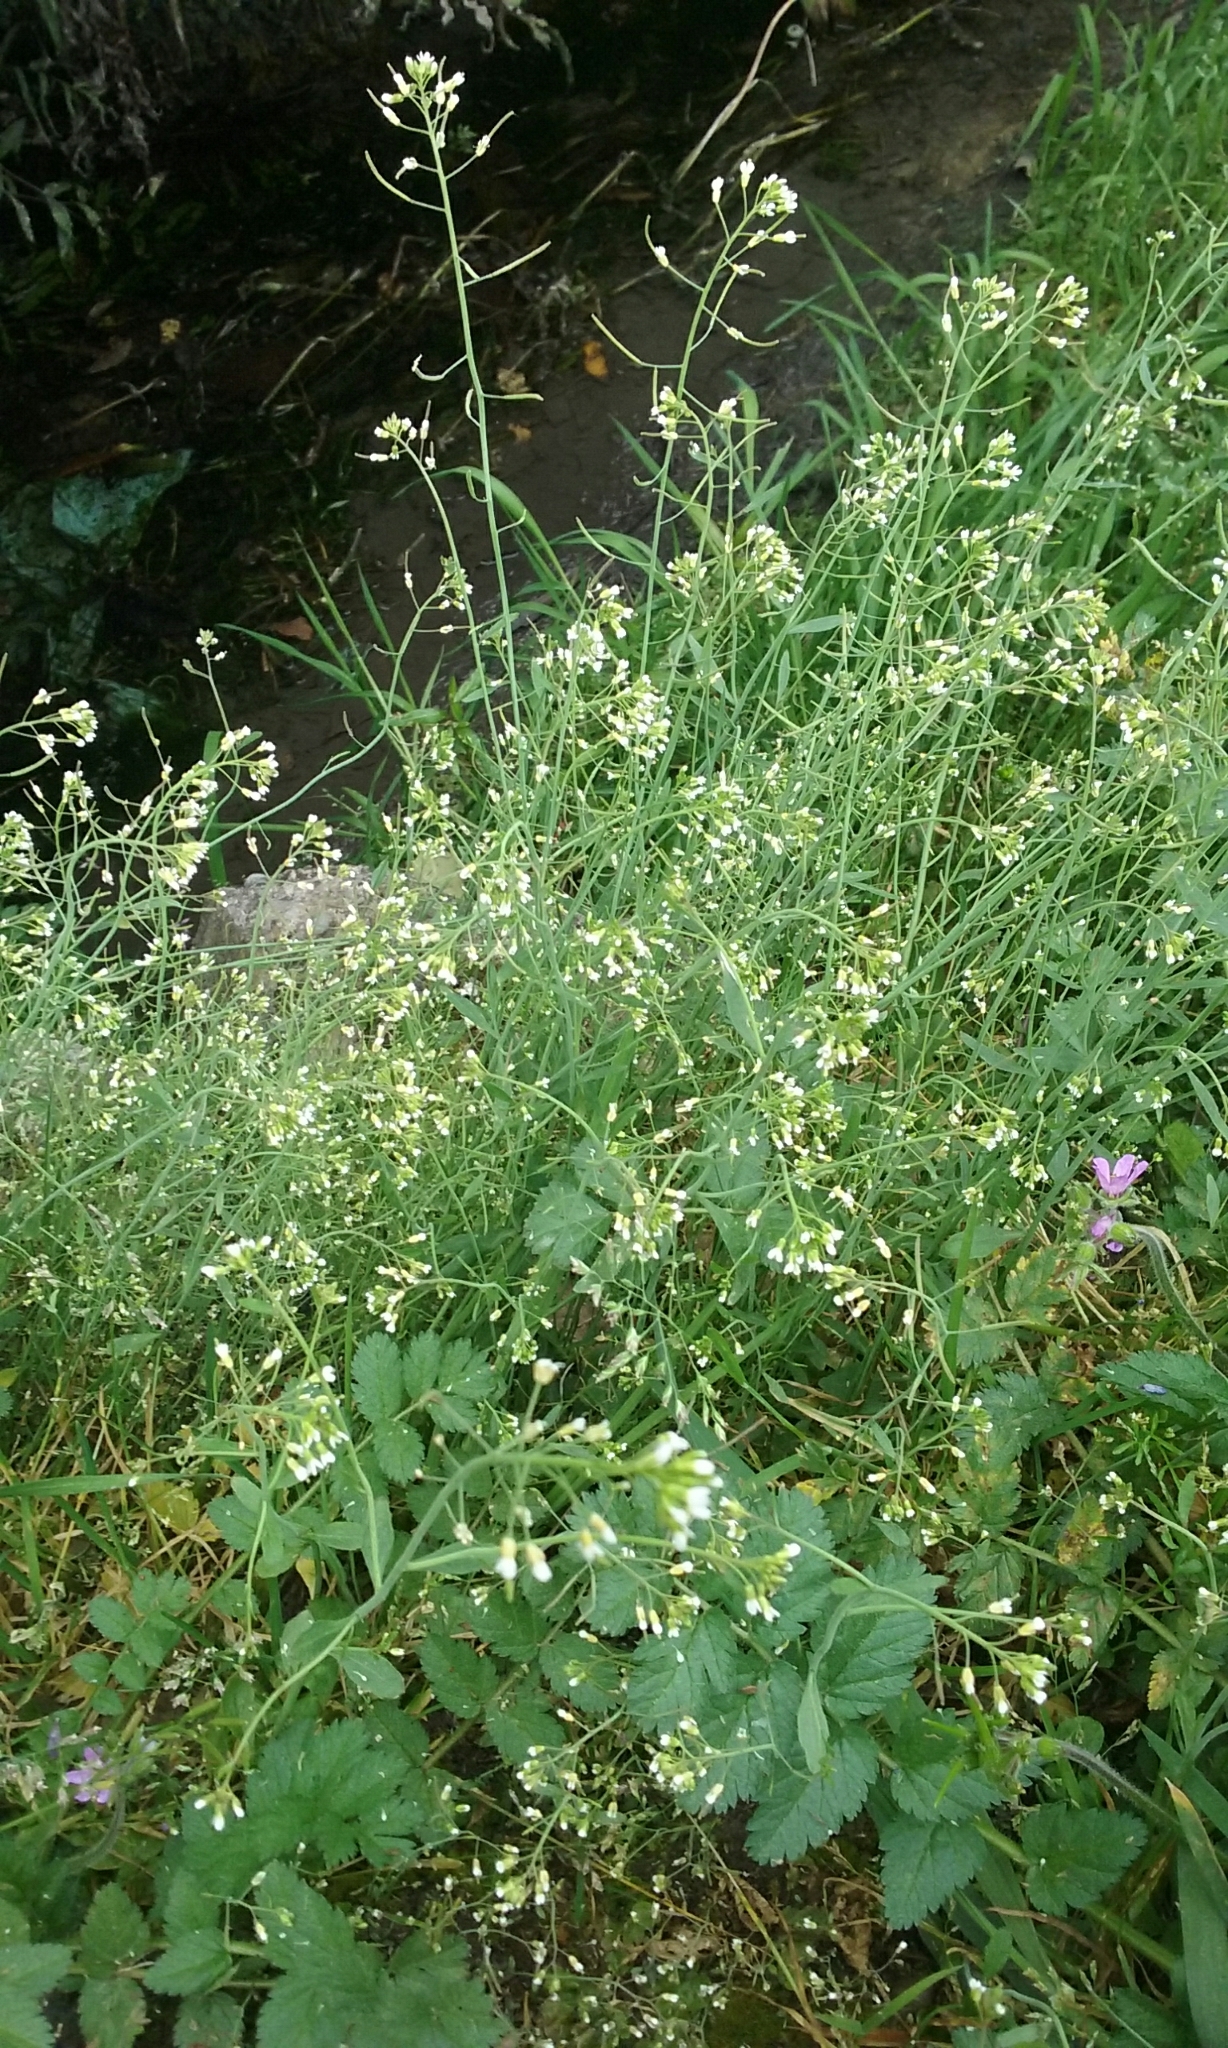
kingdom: Plantae
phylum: Tracheophyta
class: Magnoliopsida
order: Brassicales
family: Brassicaceae
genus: Arabidopsis
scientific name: Arabidopsis thaliana
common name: Thale cress
